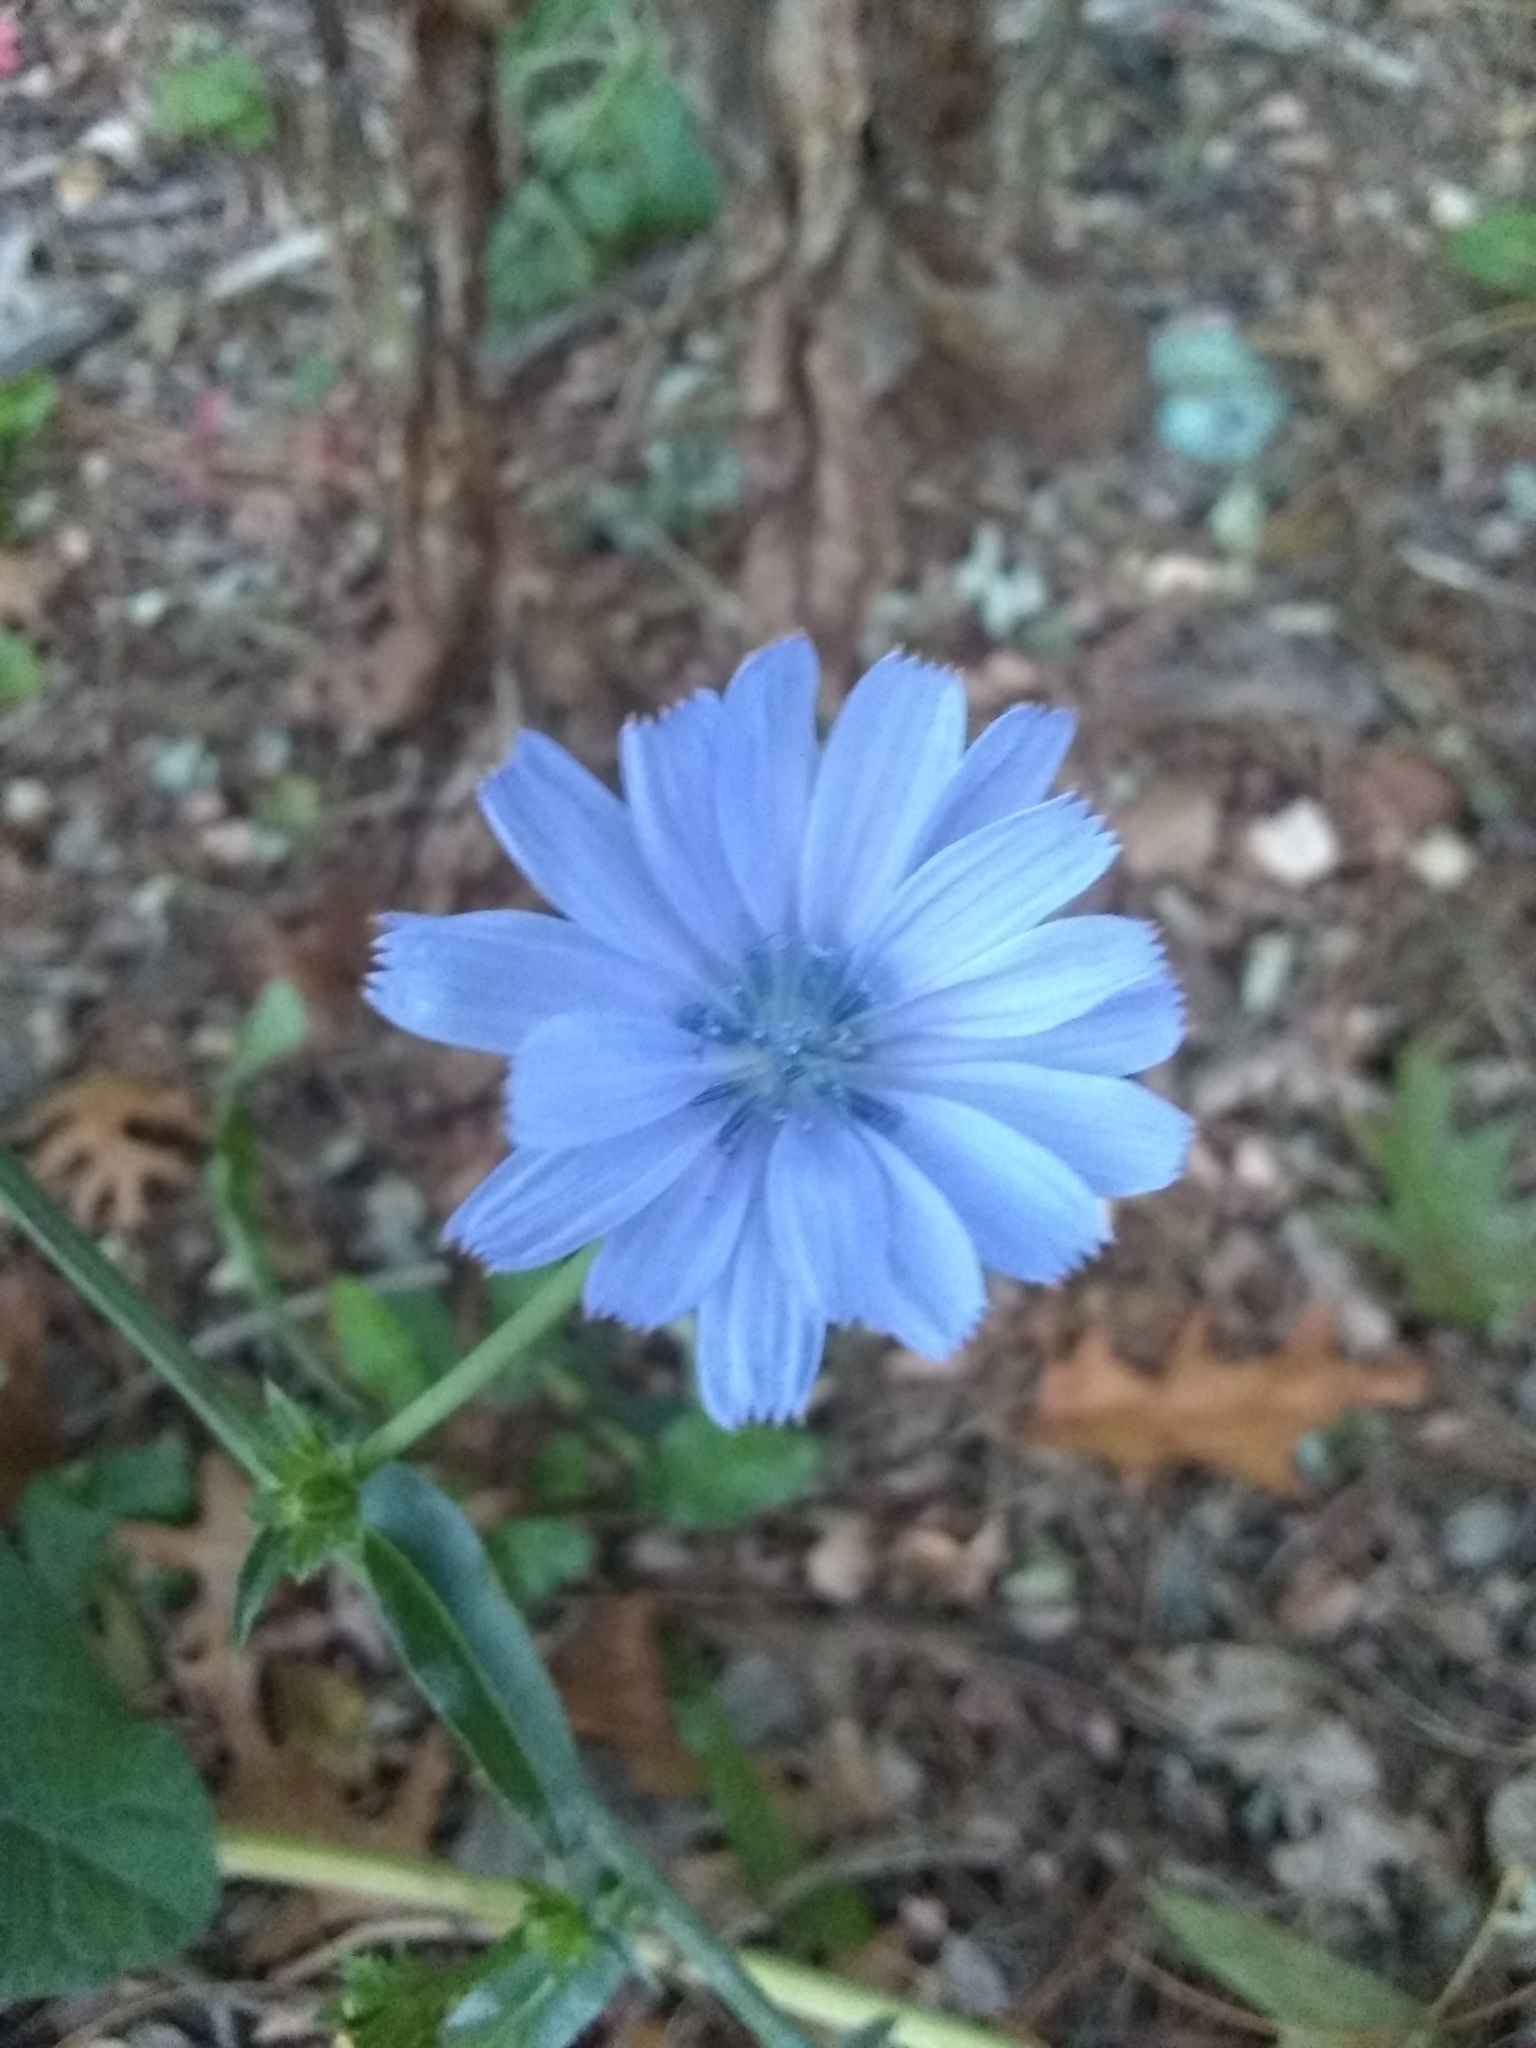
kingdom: Plantae
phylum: Tracheophyta
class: Magnoliopsida
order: Asterales
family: Asteraceae
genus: Cichorium
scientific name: Cichorium intybus
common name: Chicory
